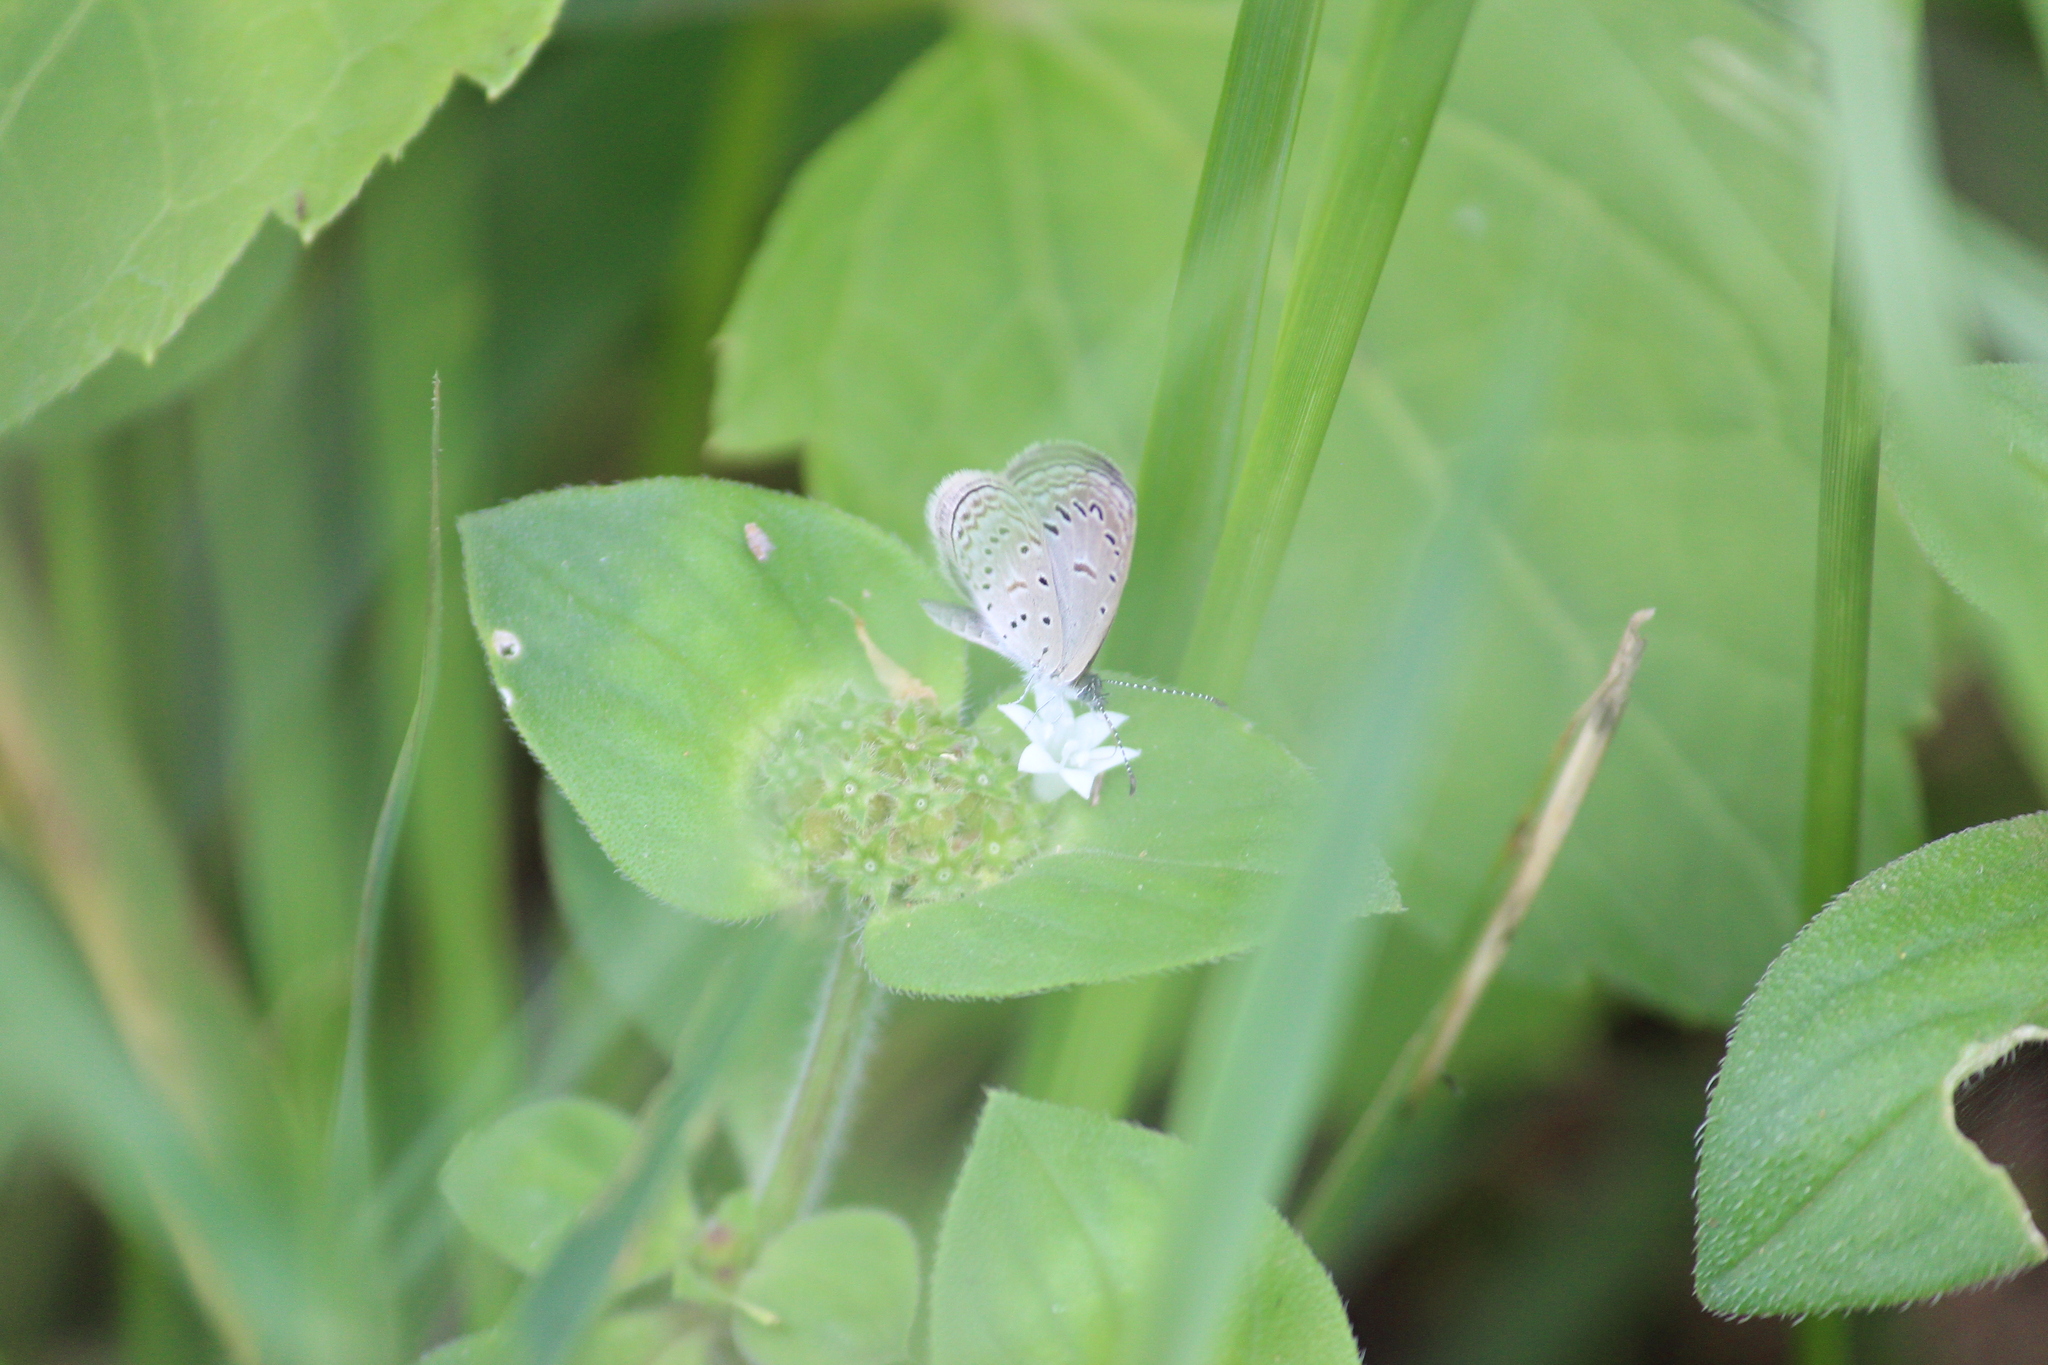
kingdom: Animalia
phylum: Arthropoda
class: Insecta
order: Lepidoptera
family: Lycaenidae
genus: Zizula
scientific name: Zizula hylax
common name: Gaika blue
